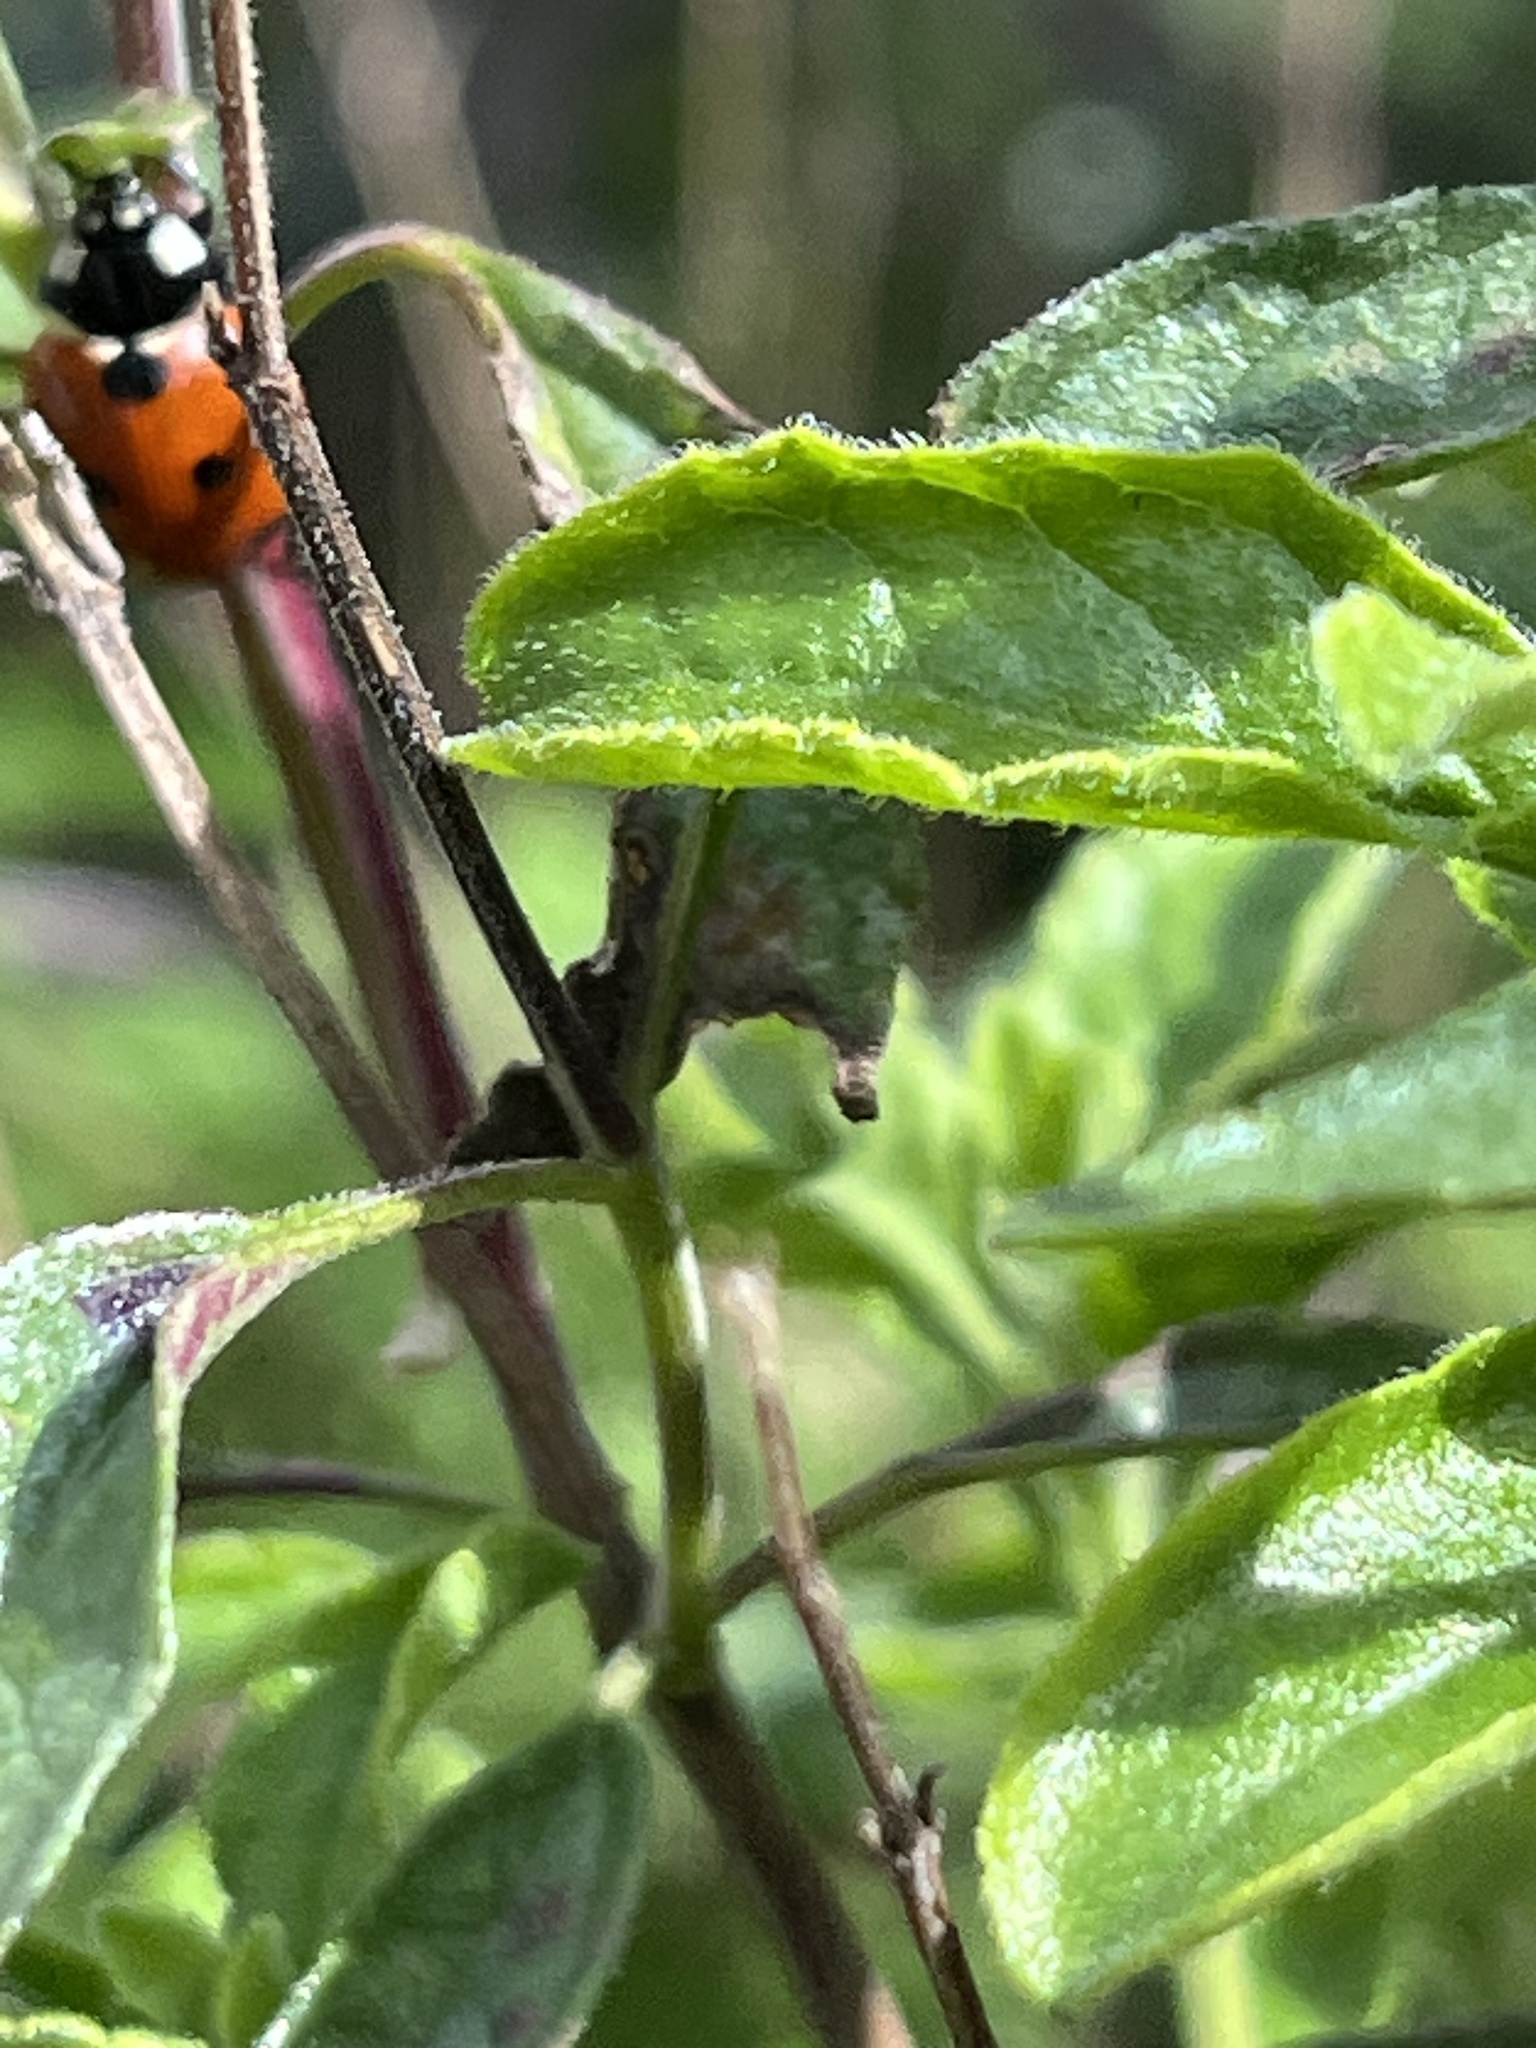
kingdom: Animalia
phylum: Arthropoda
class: Insecta
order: Coleoptera
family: Coccinellidae
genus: Coccinella
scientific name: Coccinella septempunctata
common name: Sevenspotted lady beetle
